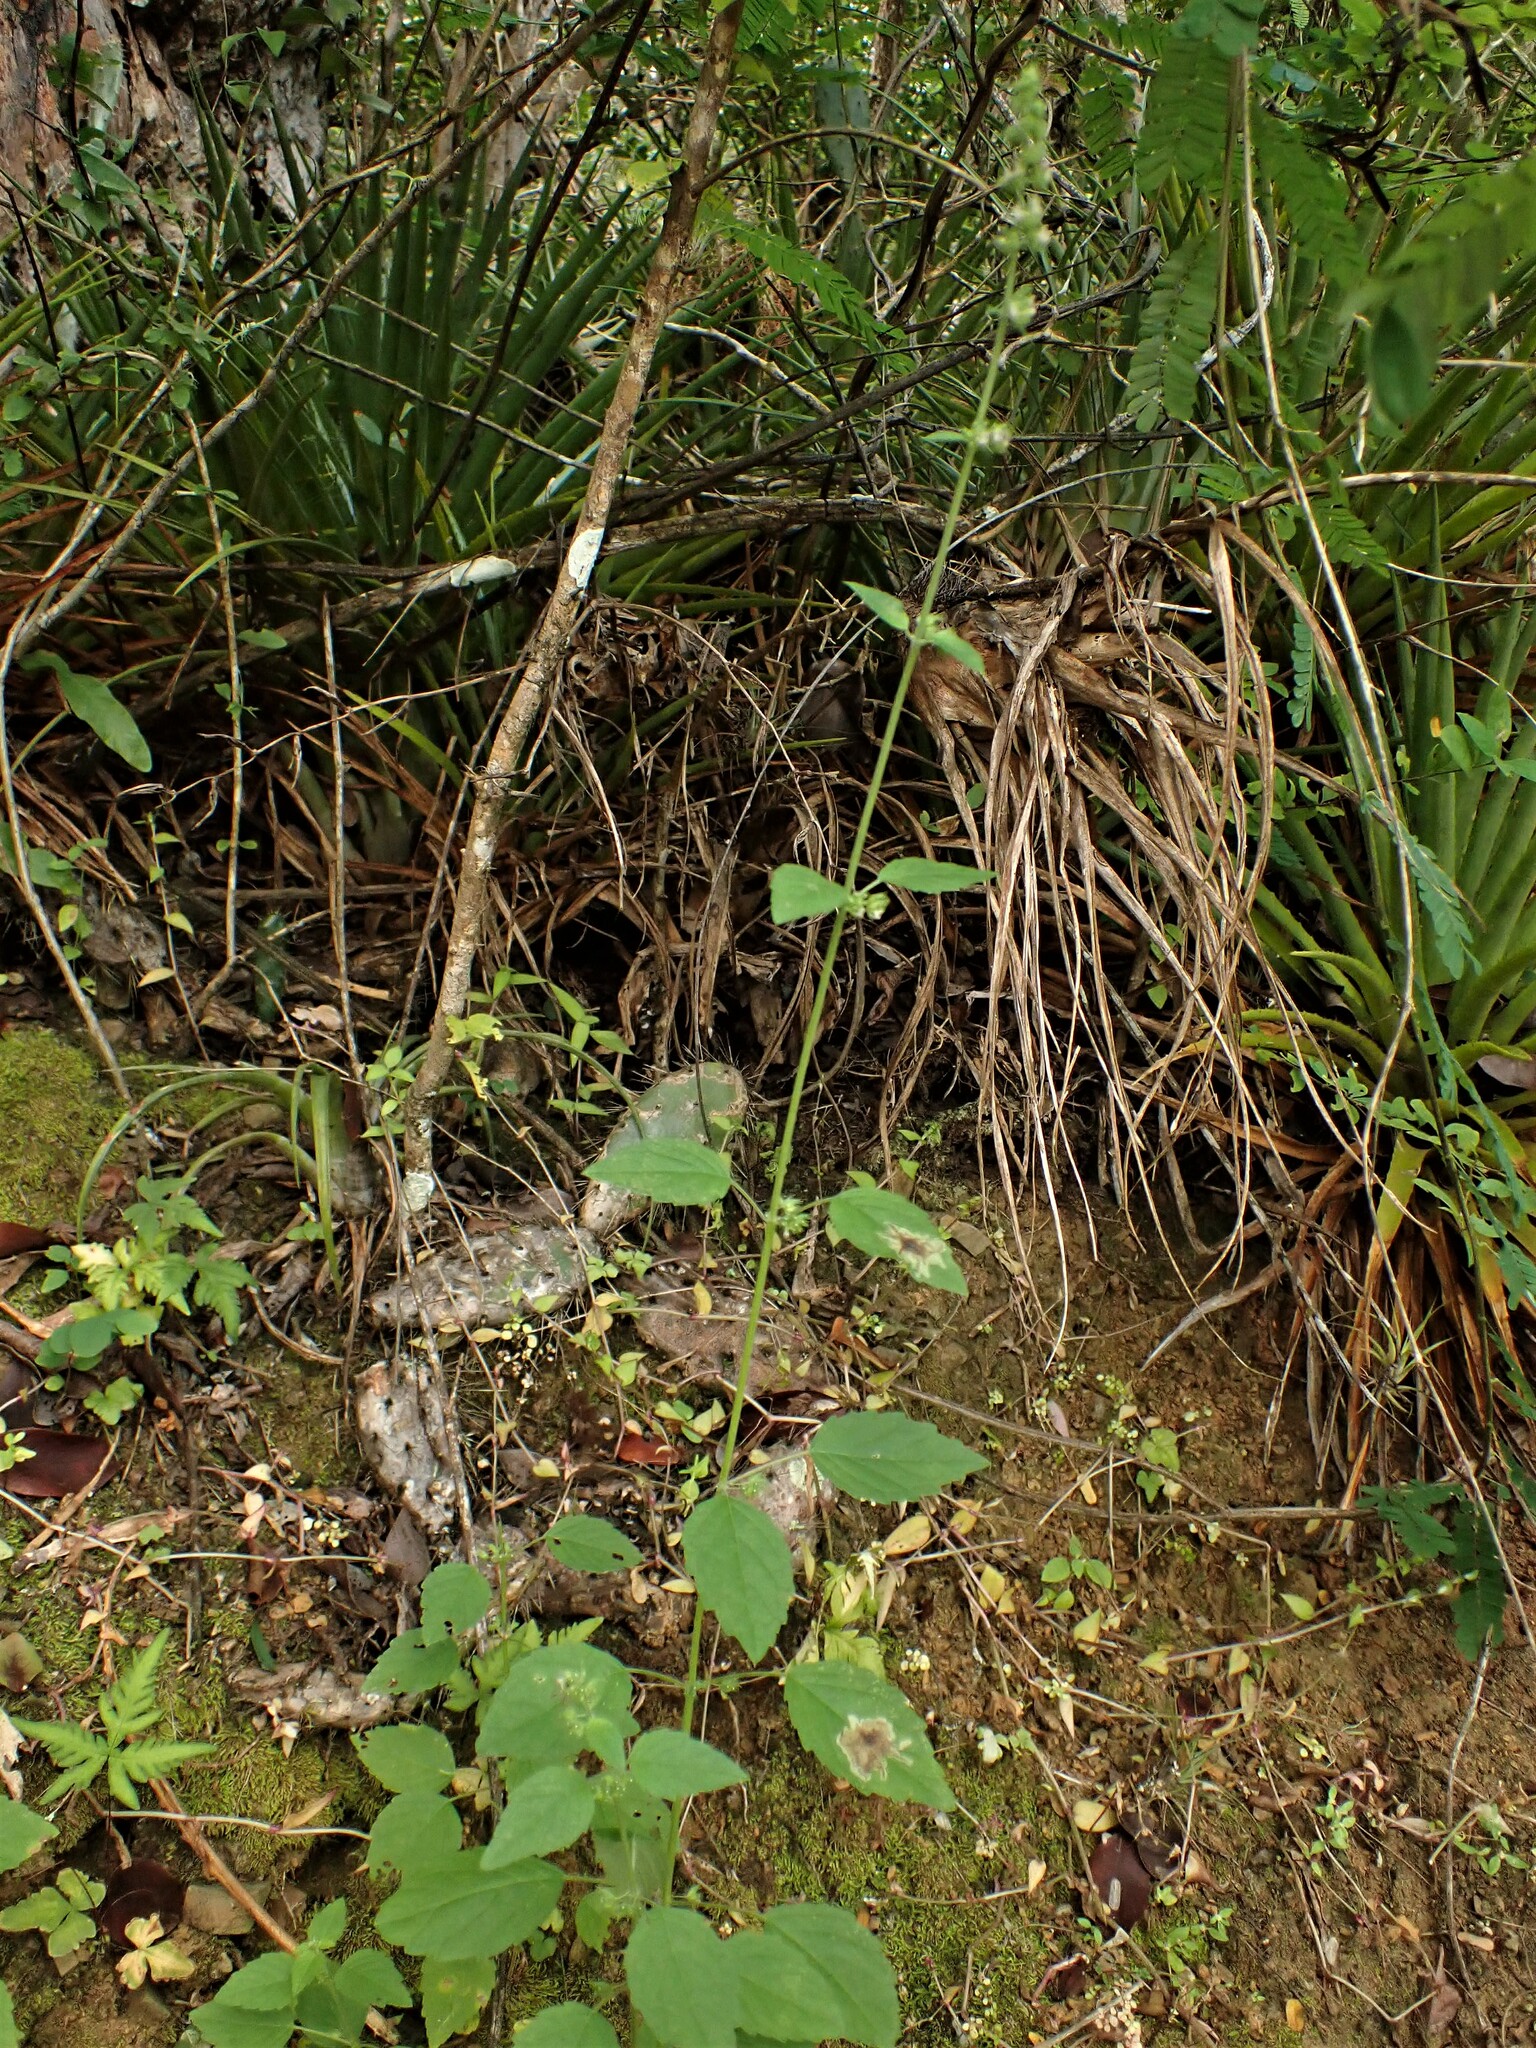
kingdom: Plantae
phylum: Tracheophyta
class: Magnoliopsida
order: Lamiales
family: Lamiaceae
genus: Mesosphaerum
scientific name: Mesosphaerum pectinatum
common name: Comb hyptis
